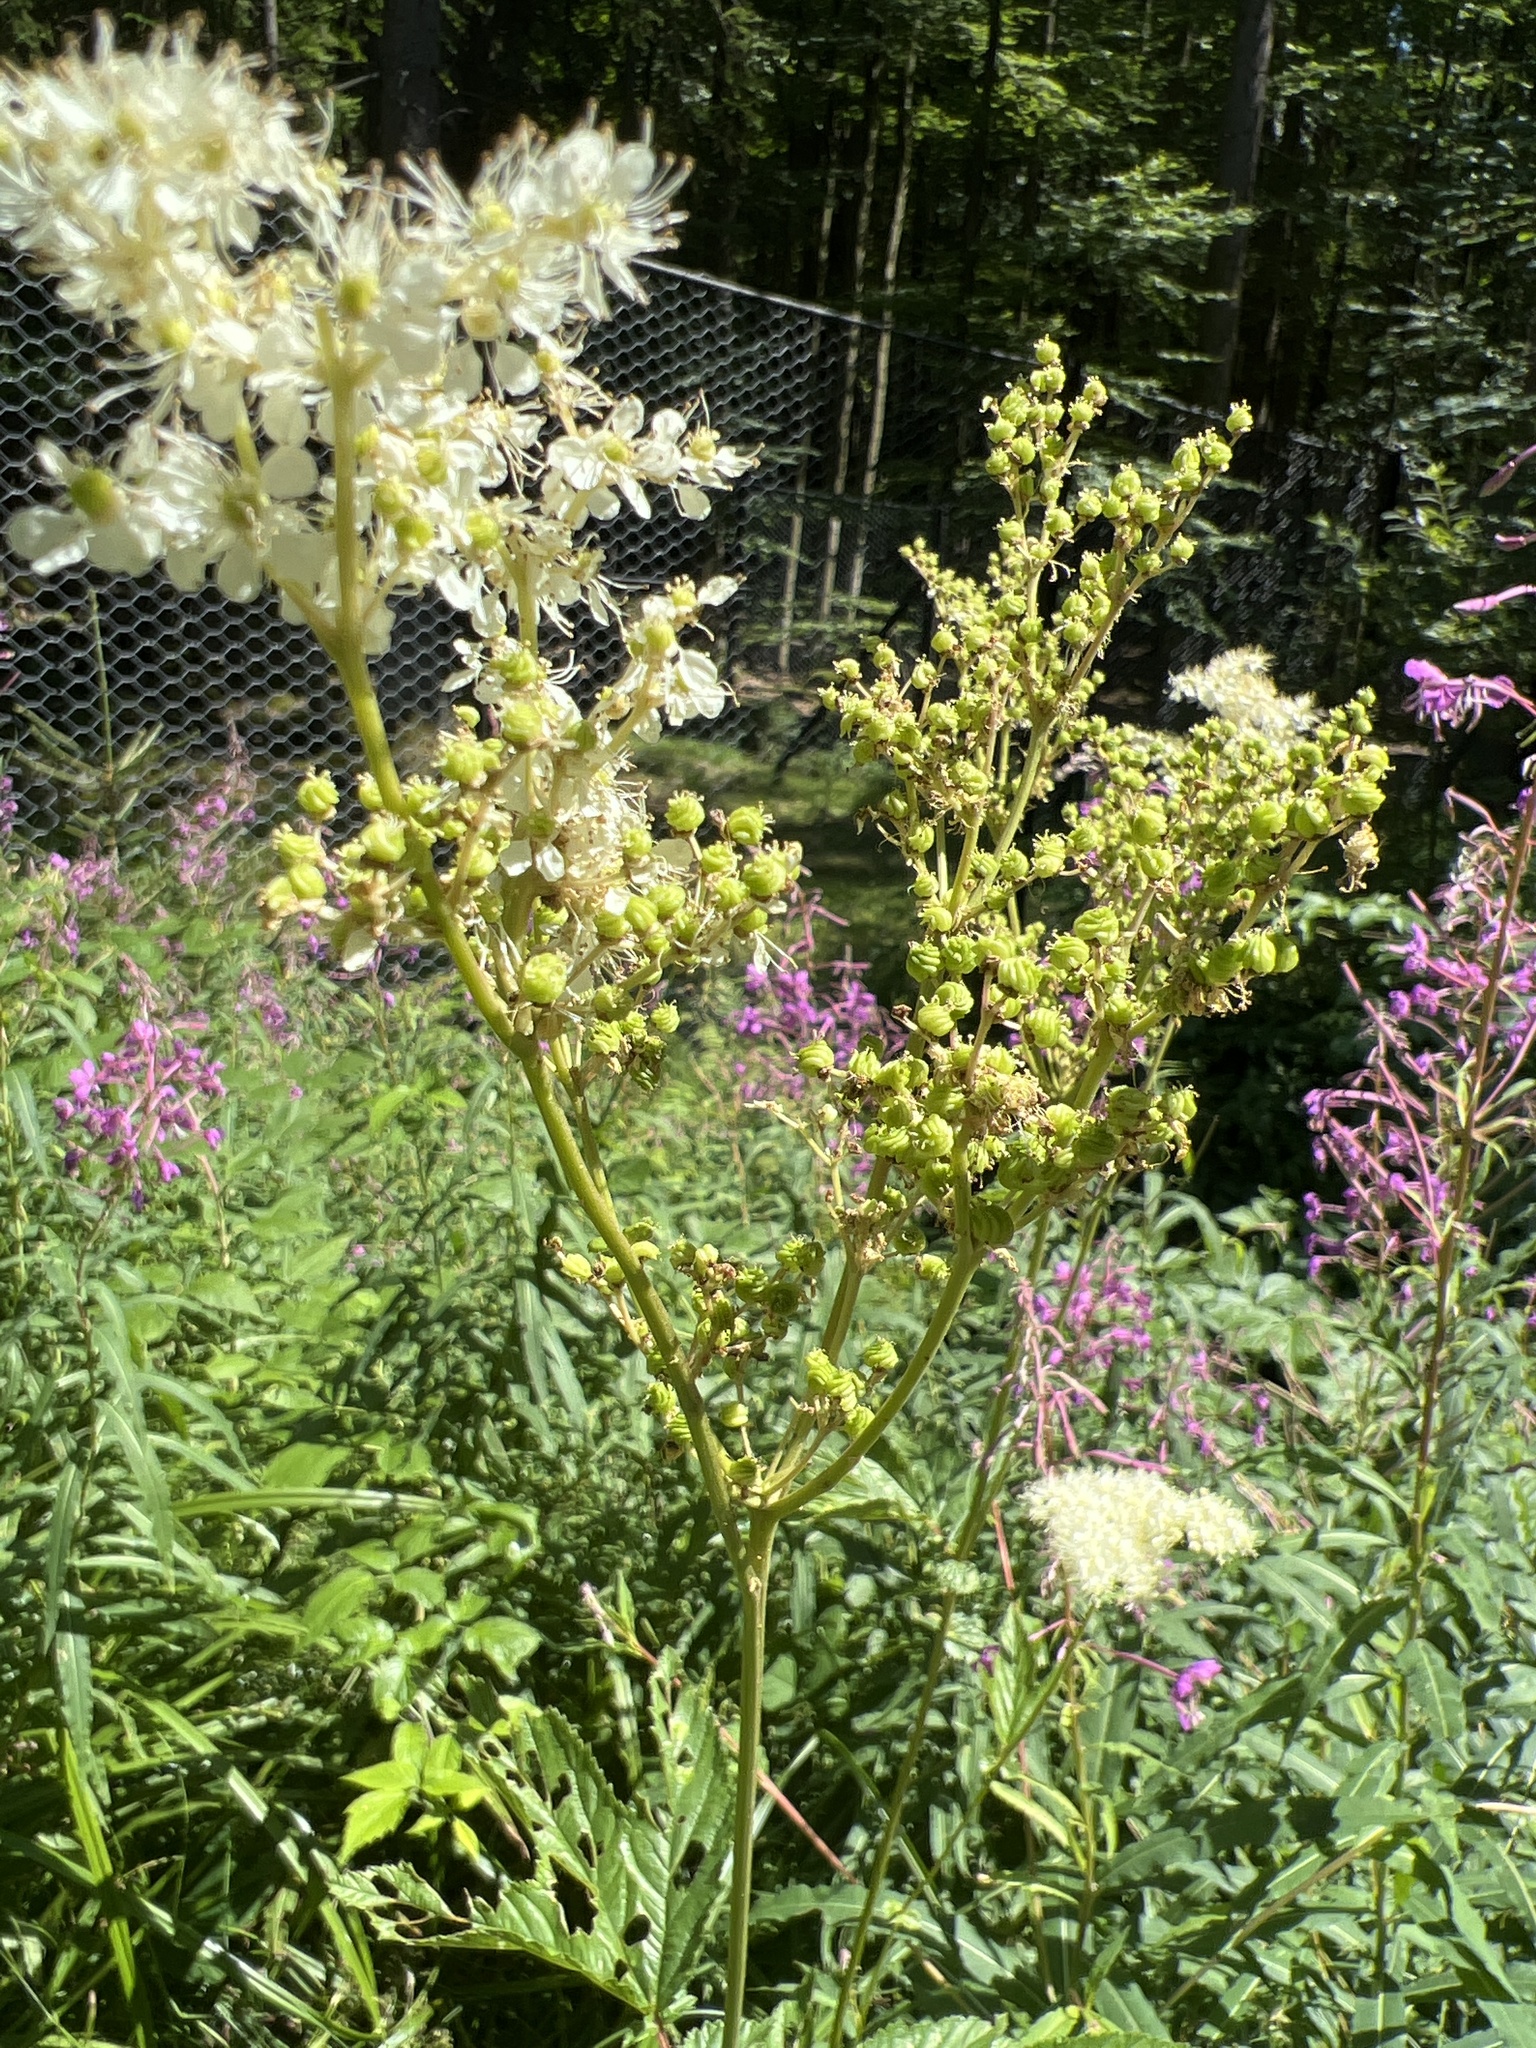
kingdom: Plantae
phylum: Tracheophyta
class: Magnoliopsida
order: Rosales
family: Rosaceae
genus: Filipendula
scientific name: Filipendula ulmaria
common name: Meadowsweet
